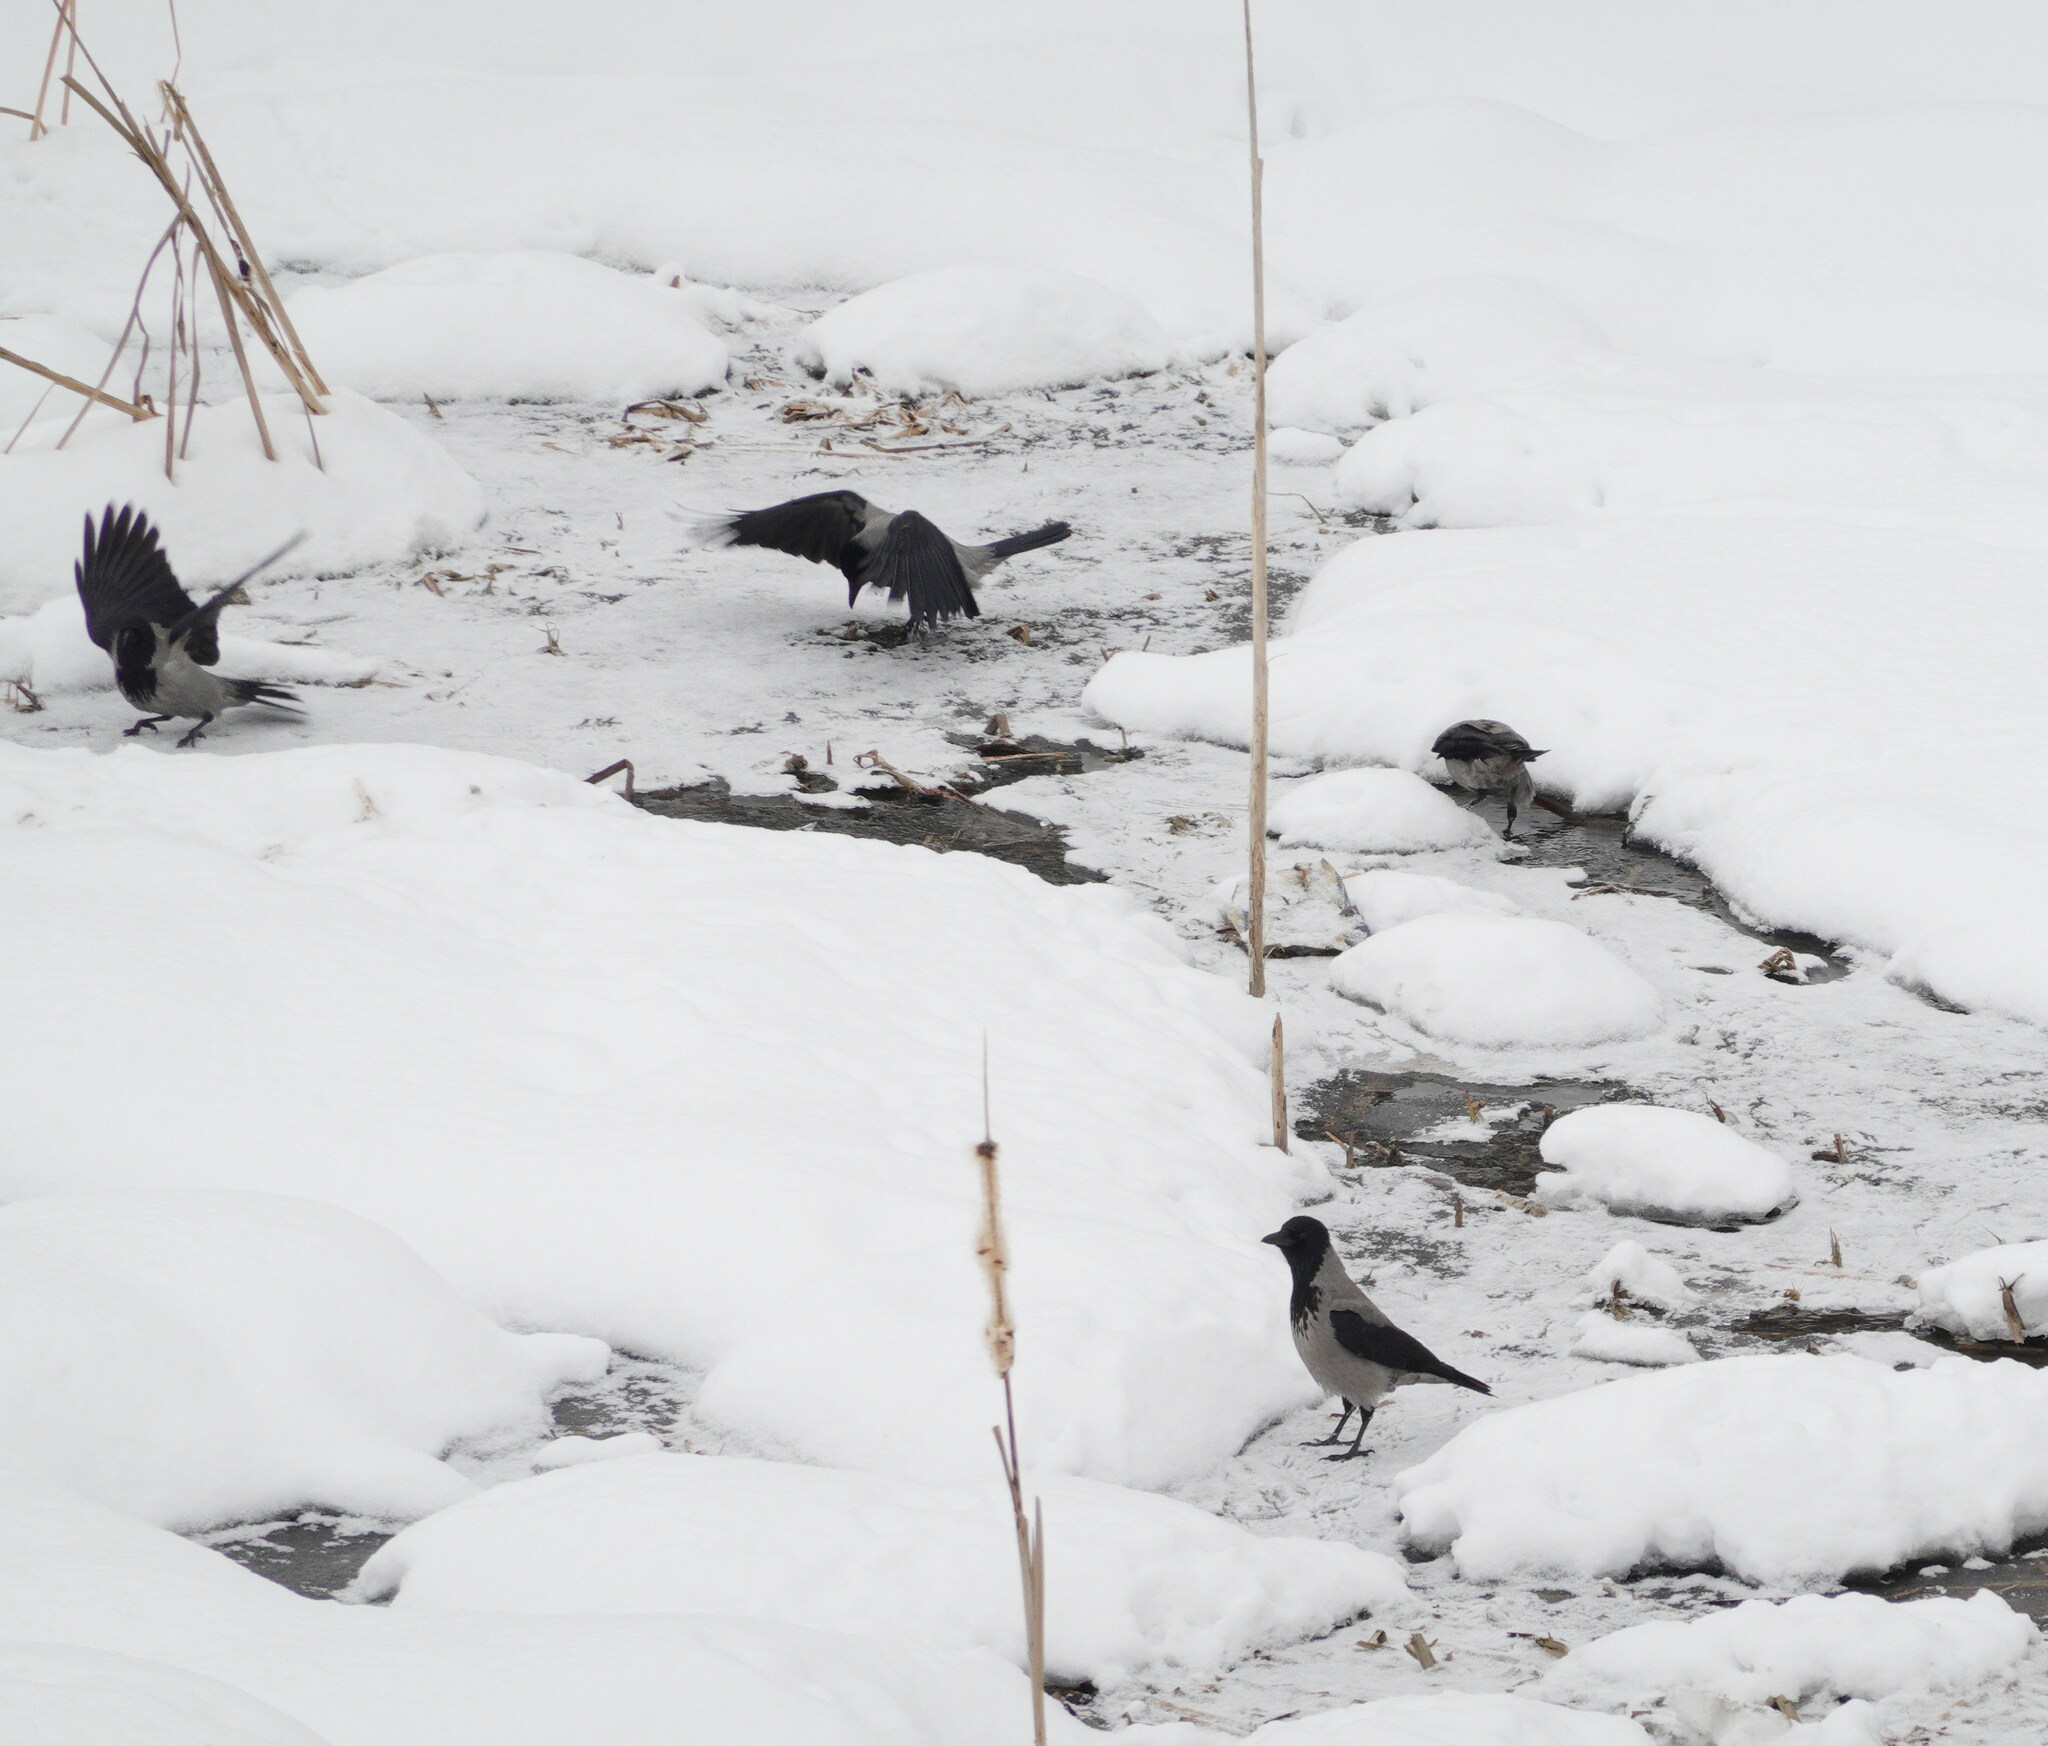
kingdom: Animalia
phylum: Chordata
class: Aves
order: Passeriformes
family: Corvidae
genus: Corvus
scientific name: Corvus cornix
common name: Hooded crow
